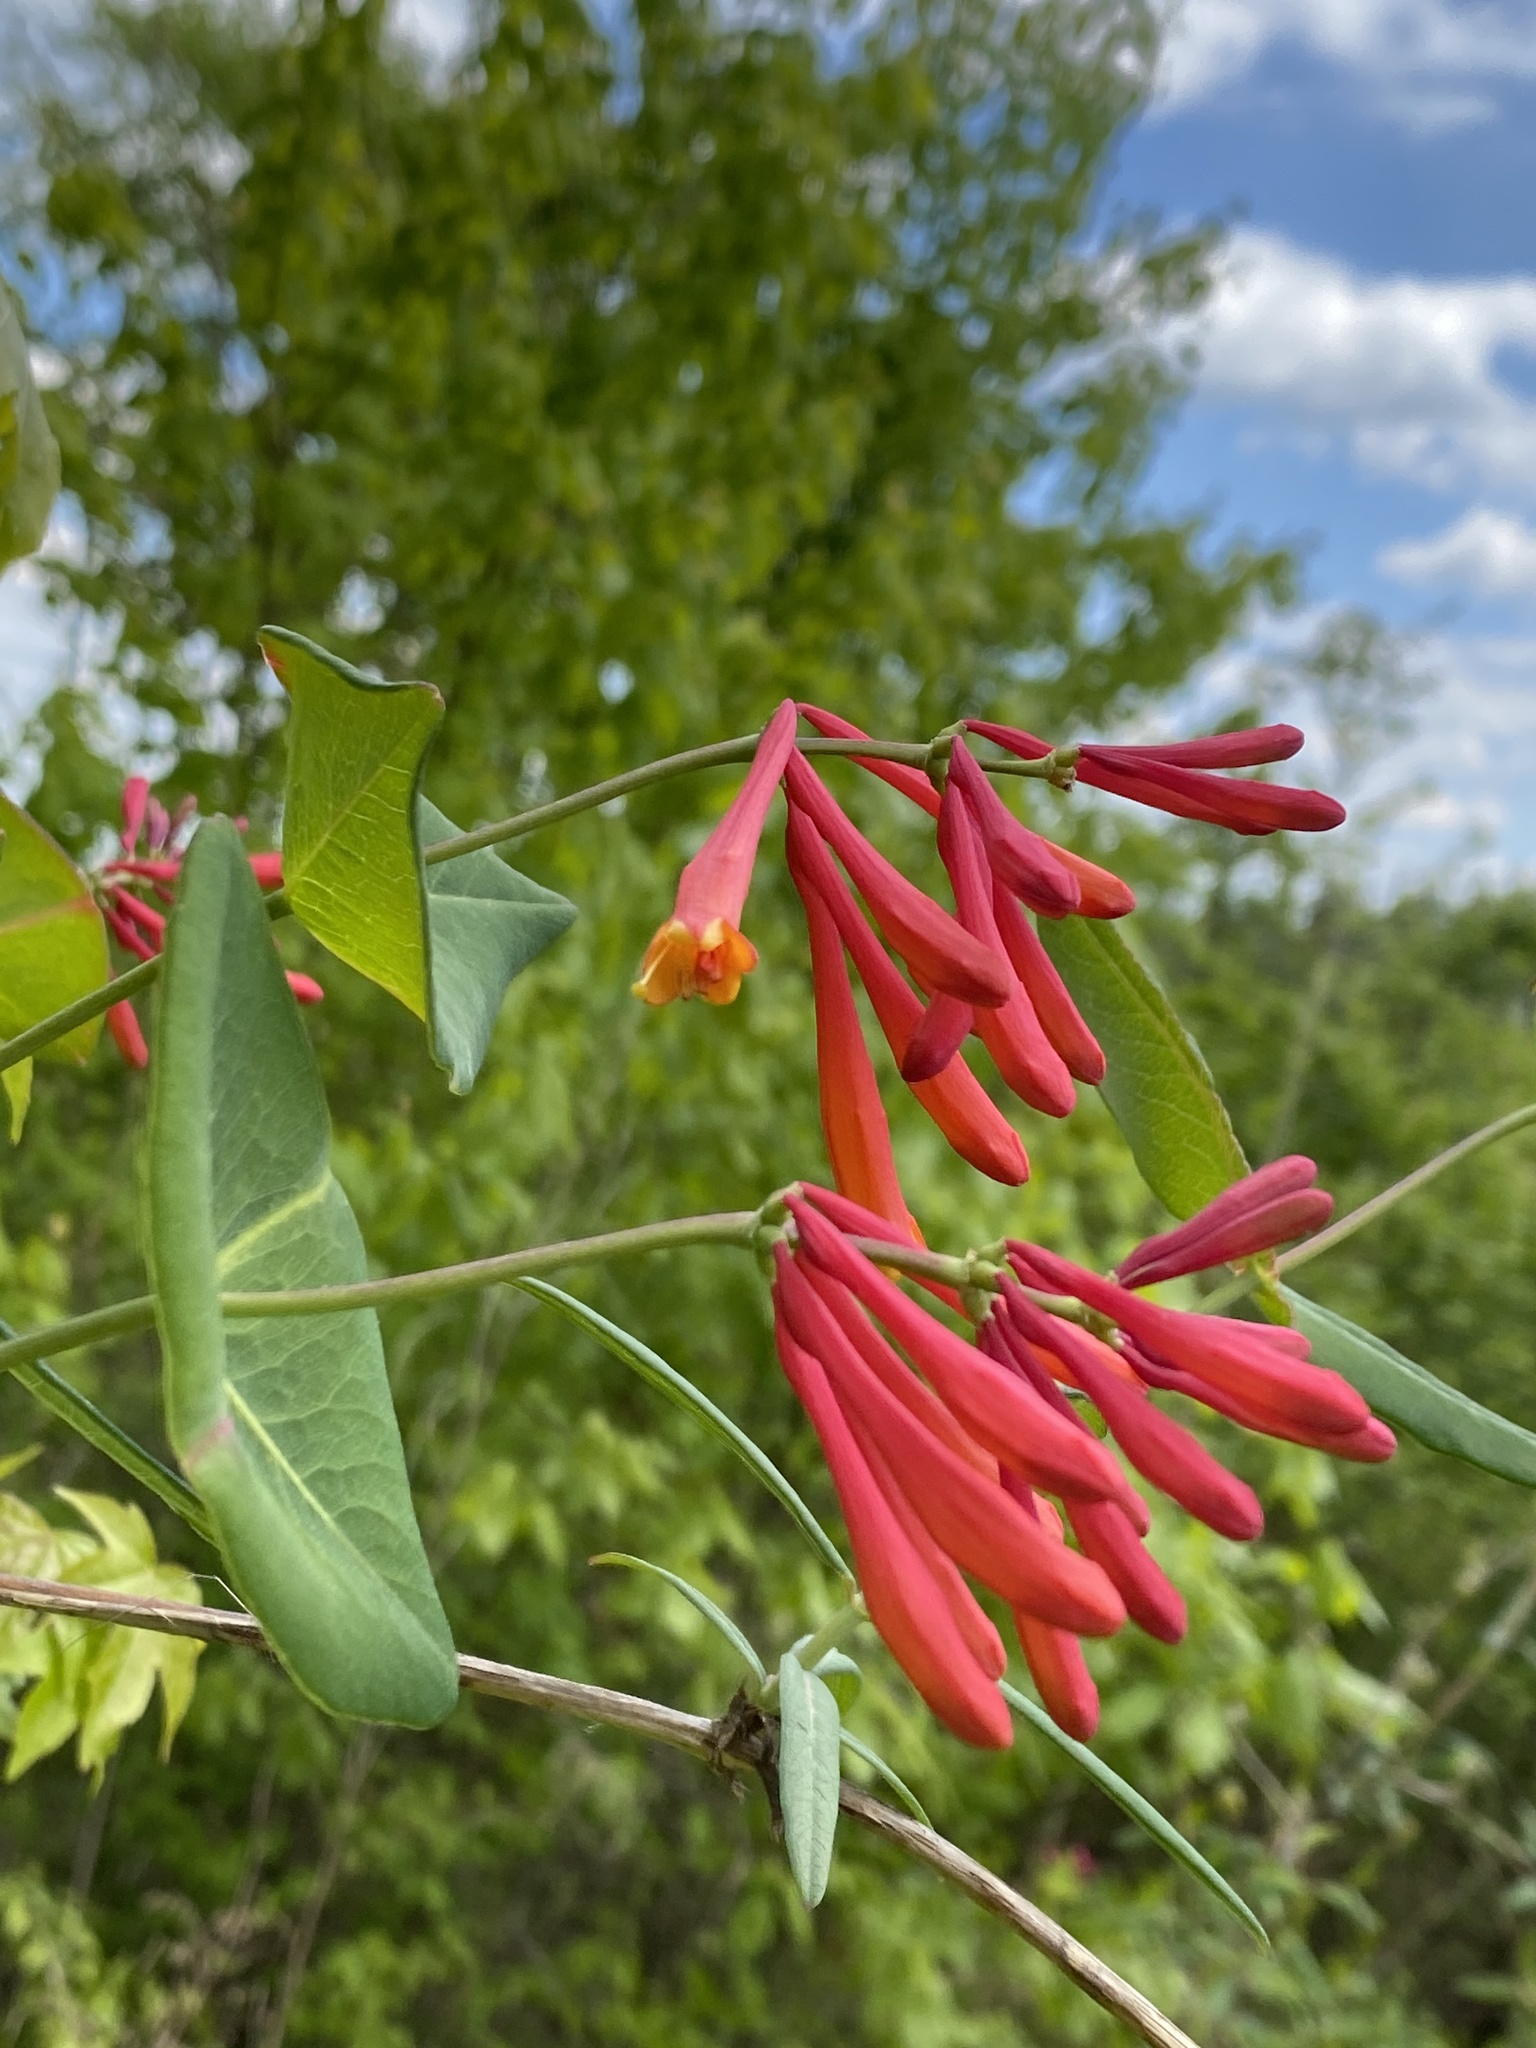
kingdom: Plantae
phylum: Tracheophyta
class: Magnoliopsida
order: Dipsacales
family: Caprifoliaceae
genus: Lonicera
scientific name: Lonicera sempervirens
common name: Coral honeysuckle
